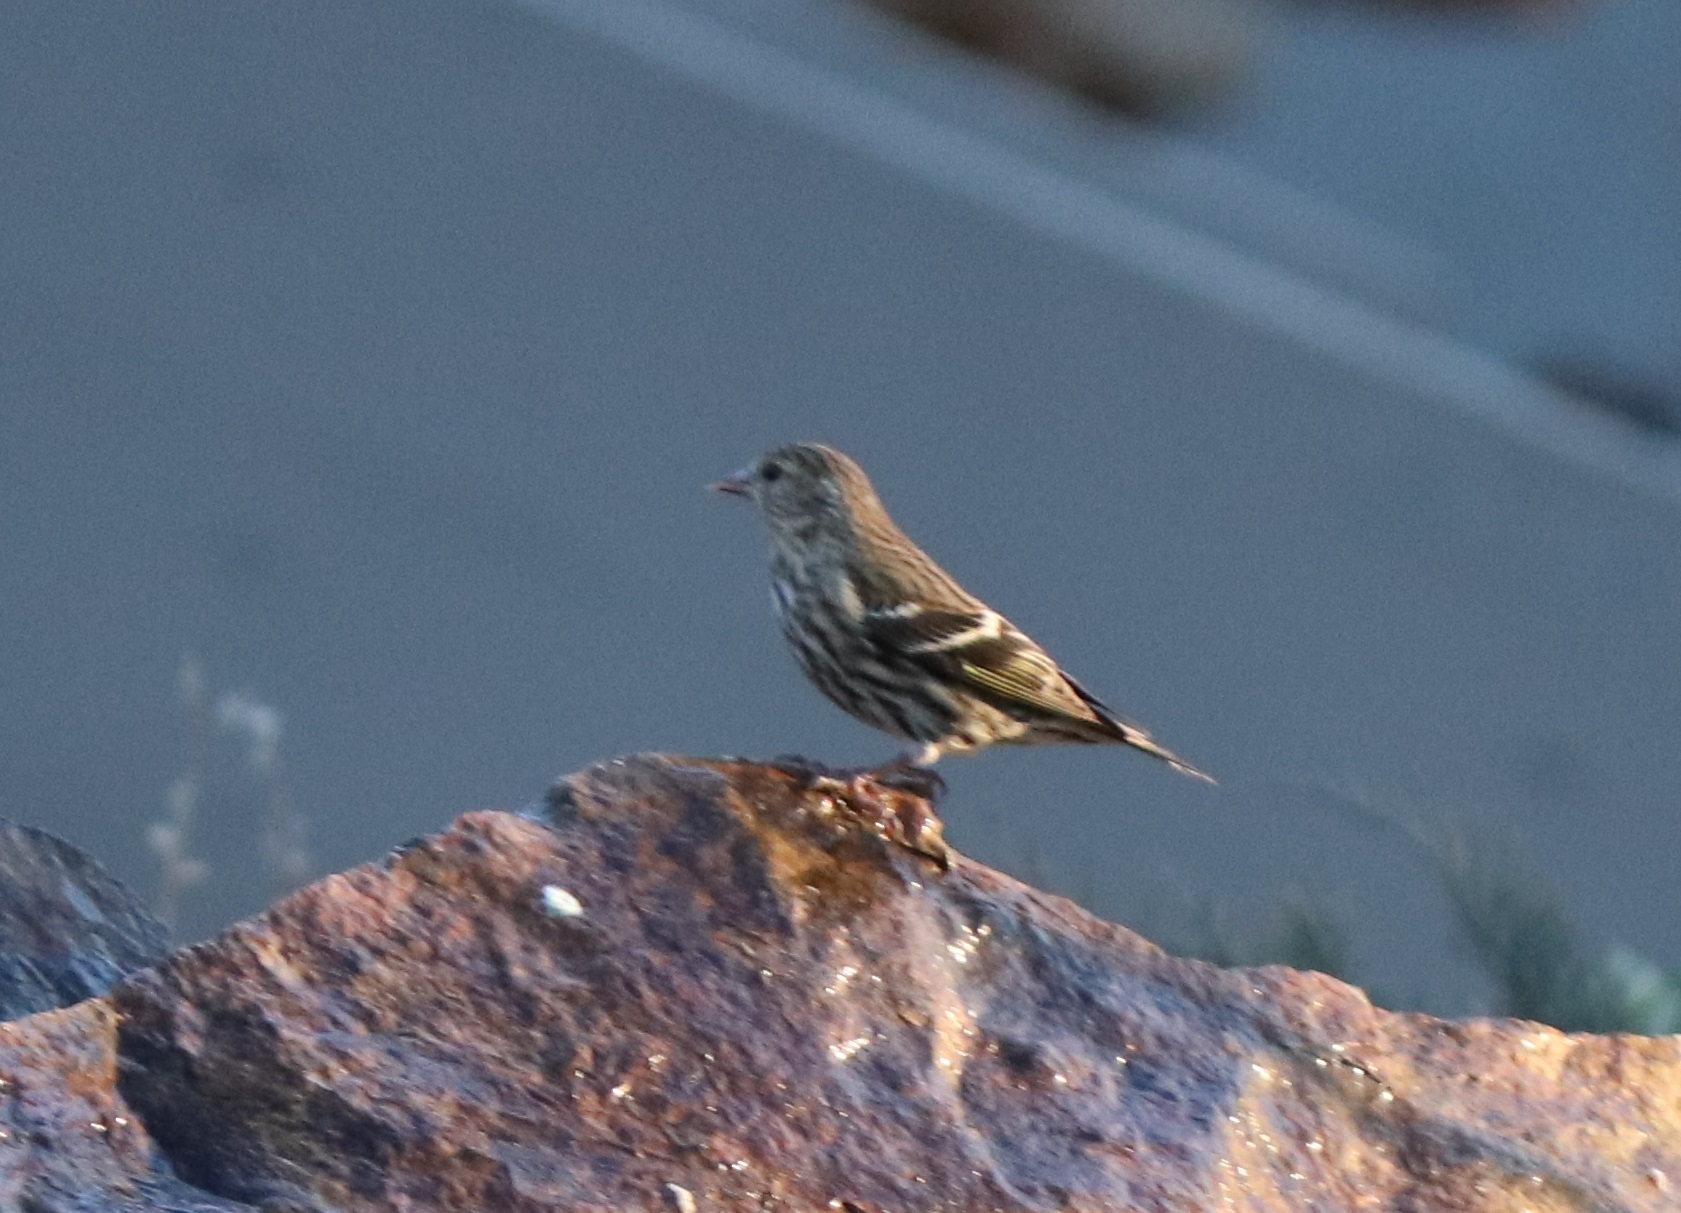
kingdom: Animalia
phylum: Chordata
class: Aves
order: Passeriformes
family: Fringillidae
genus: Spinus
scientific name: Spinus pinus
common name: Pine siskin
